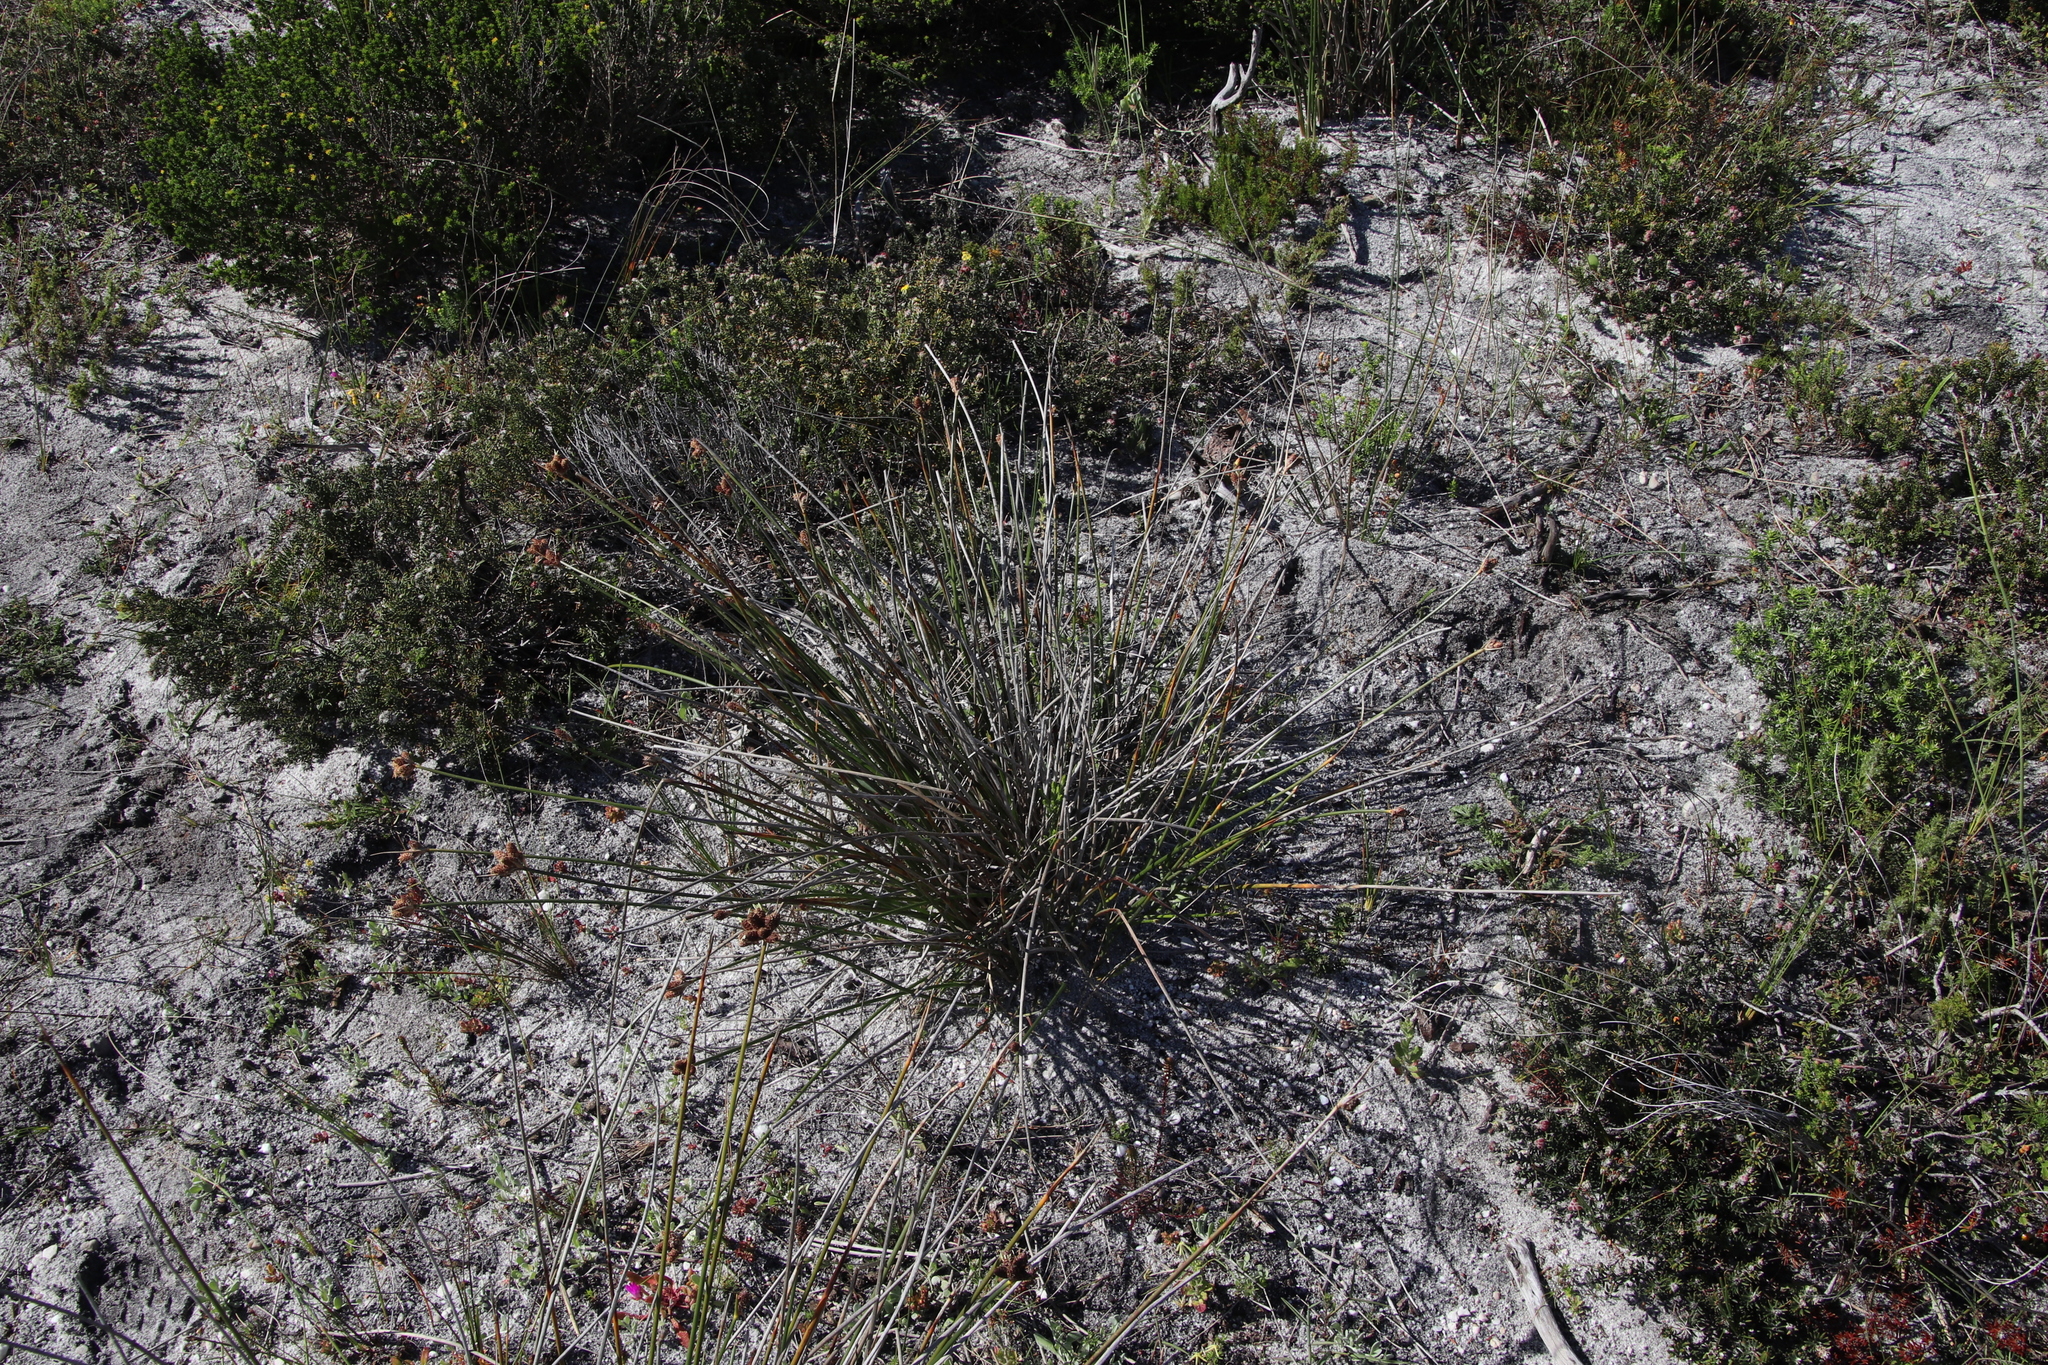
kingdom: Plantae
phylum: Tracheophyta
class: Liliopsida
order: Poales
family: Cyperaceae
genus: Hellmuthia
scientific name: Hellmuthia membranacea
